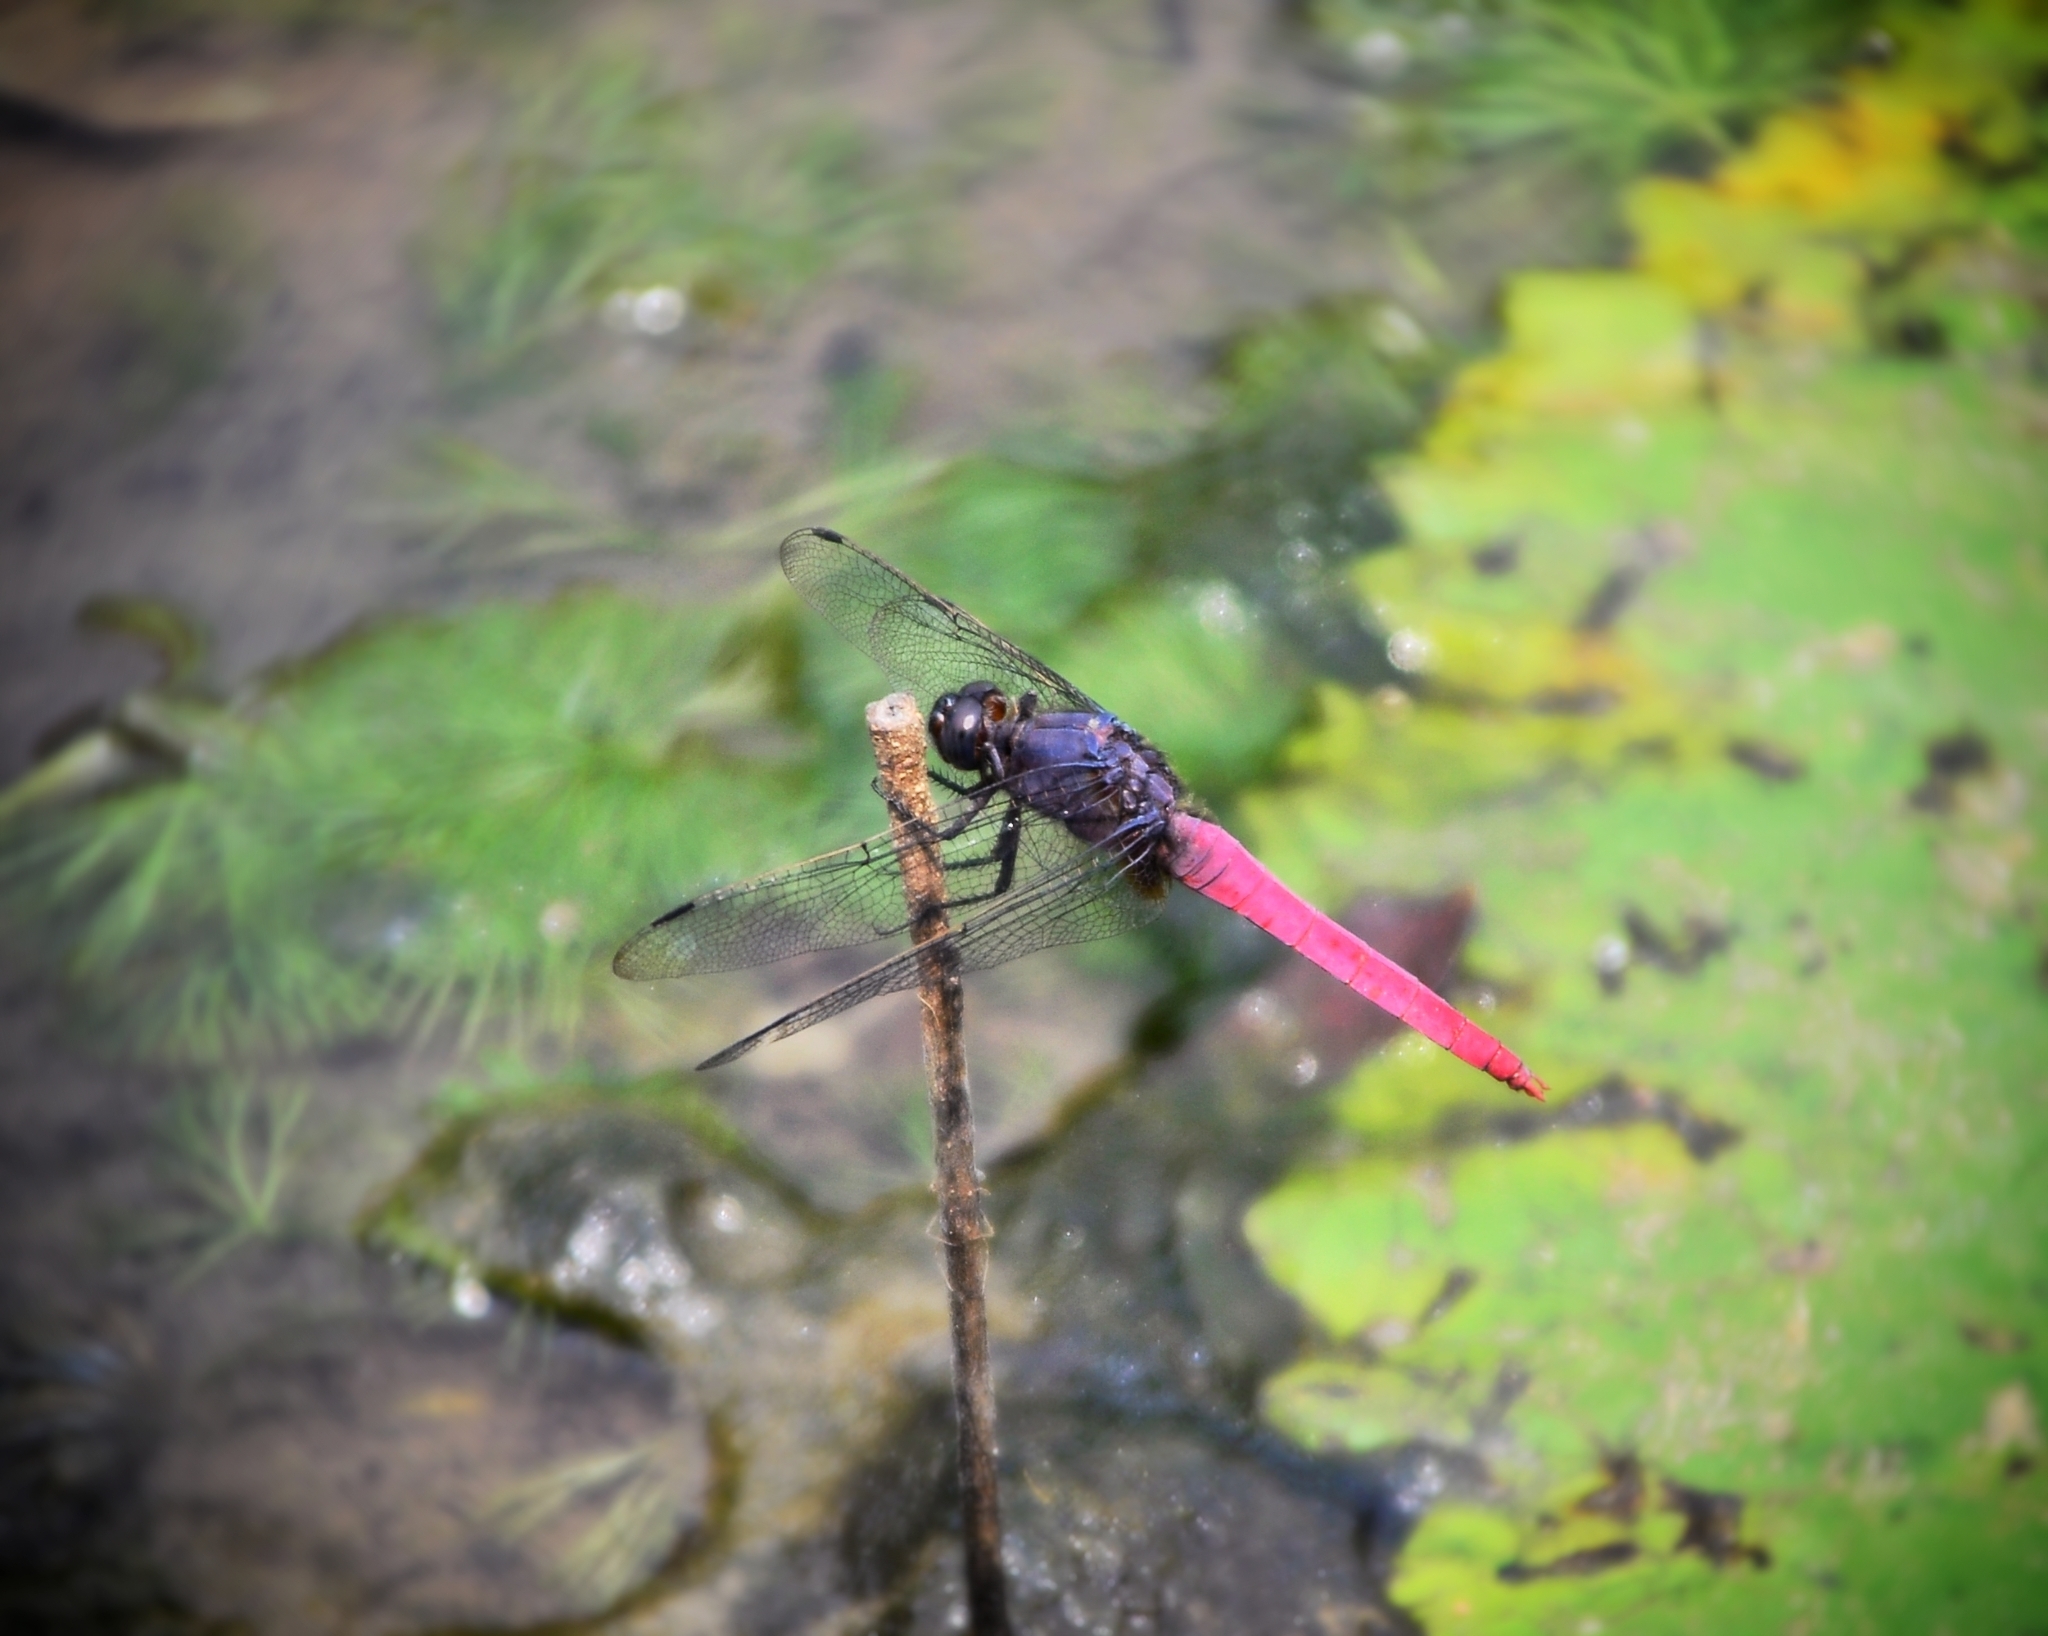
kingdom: Animalia
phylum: Arthropoda
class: Insecta
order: Odonata
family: Libellulidae
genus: Orthetrum
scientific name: Orthetrum pruinosum
